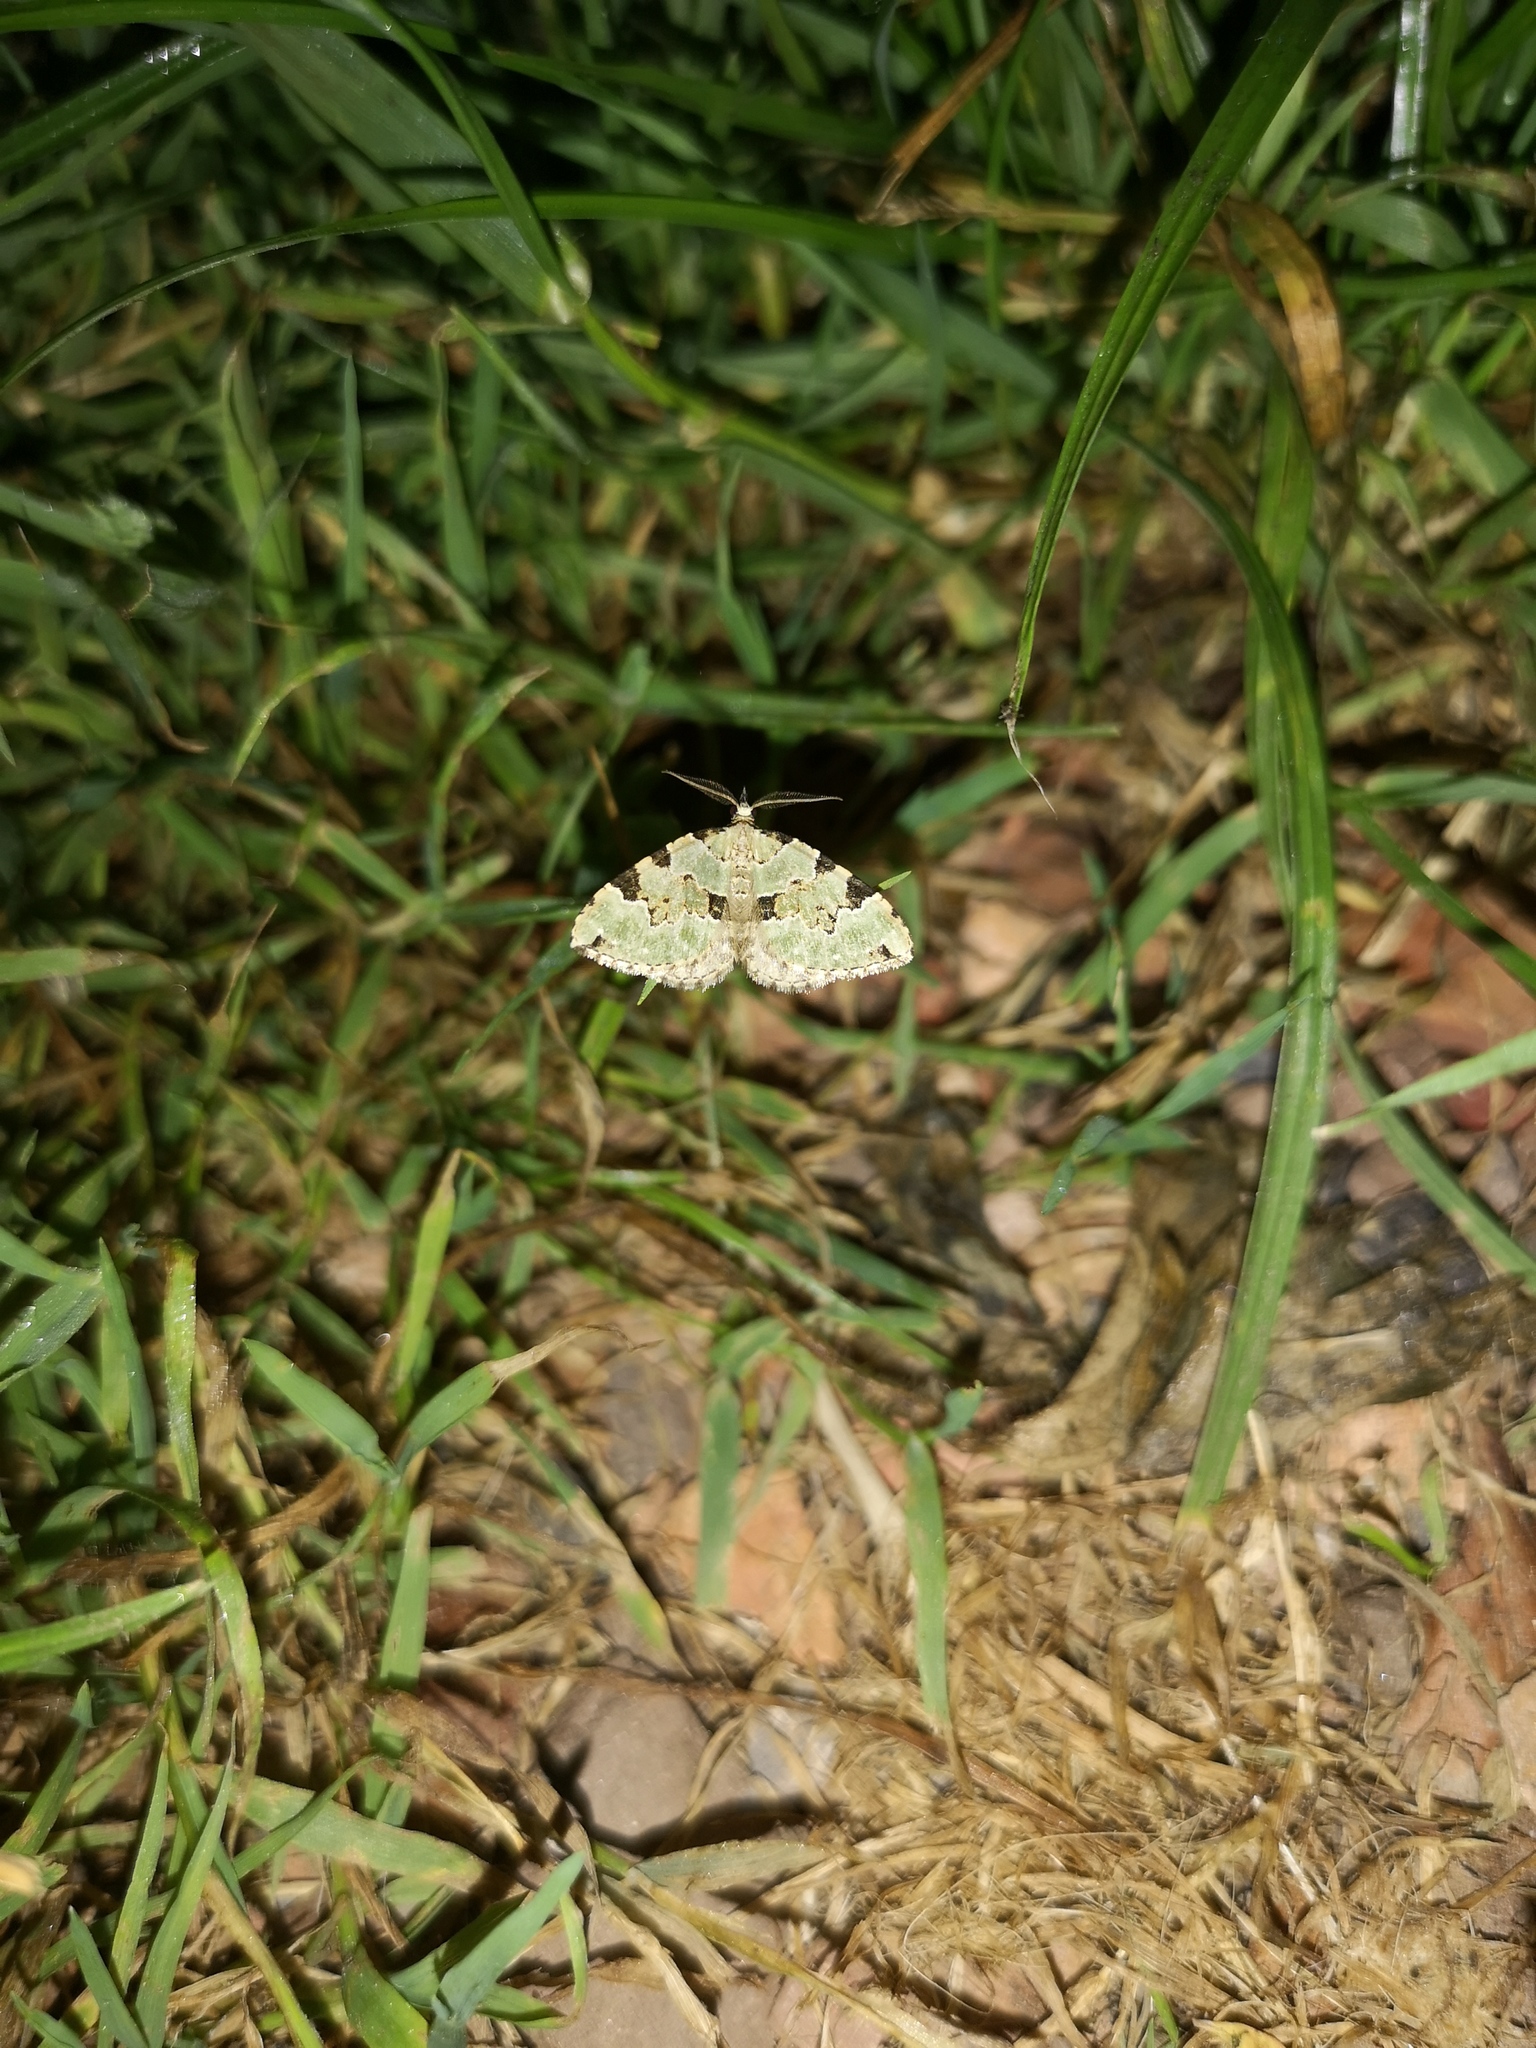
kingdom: Animalia
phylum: Arthropoda
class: Insecta
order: Lepidoptera
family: Geometridae
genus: Colostygia
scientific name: Colostygia pectinataria
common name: Green carpet
